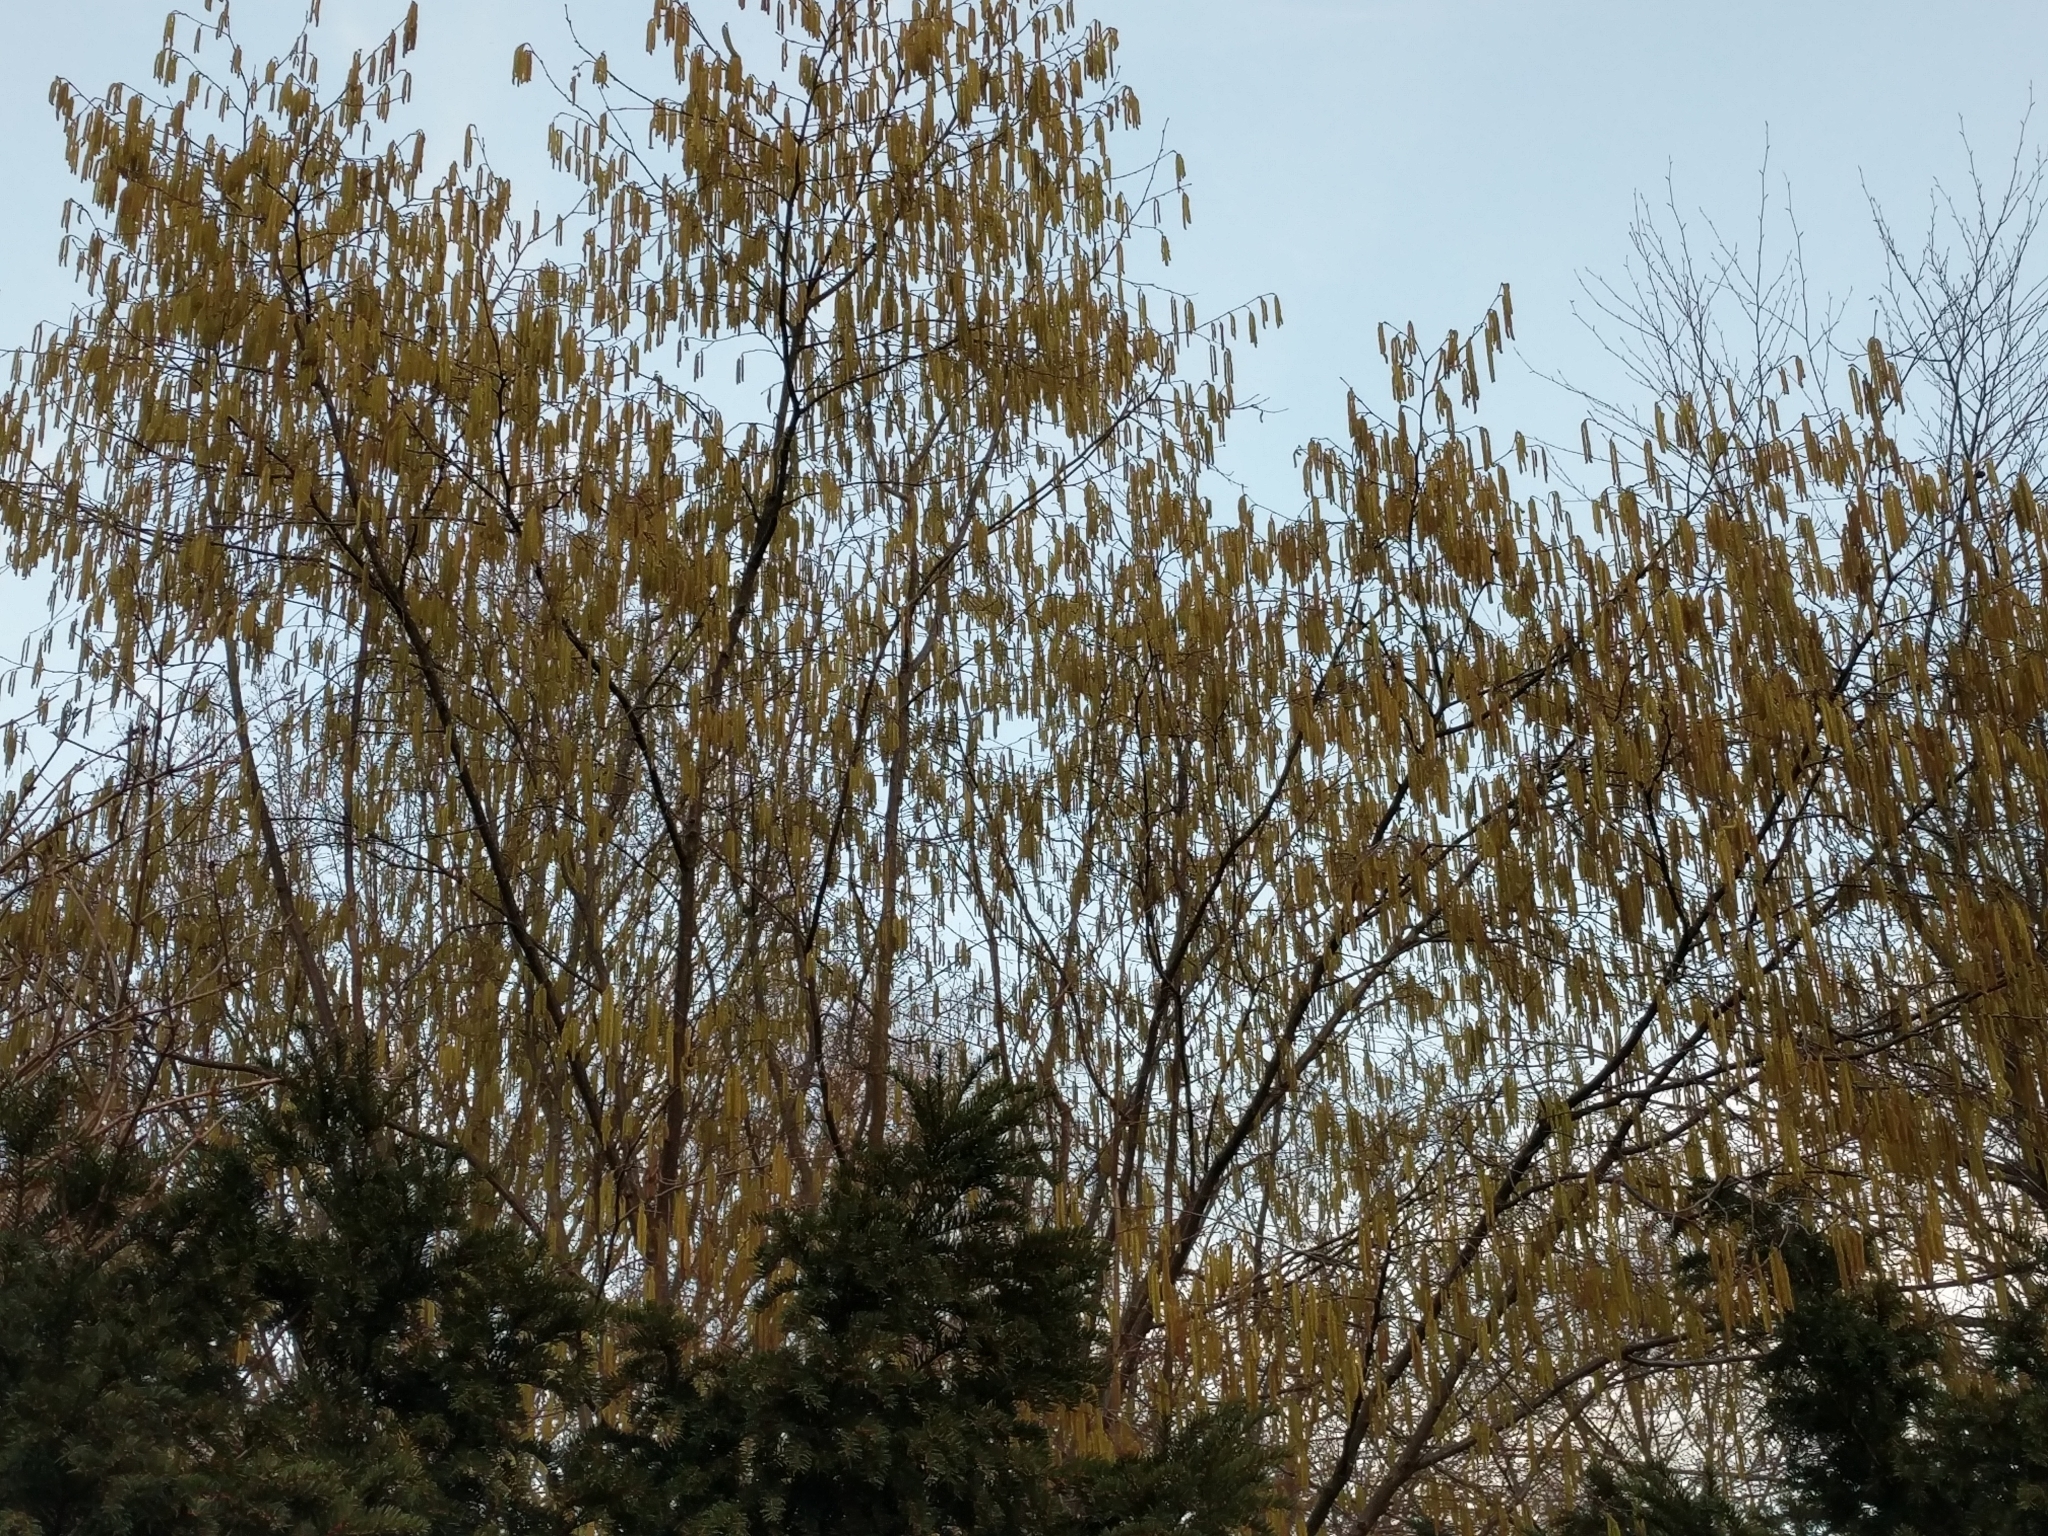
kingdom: Plantae
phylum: Tracheophyta
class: Magnoliopsida
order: Fagales
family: Betulaceae
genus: Corylus
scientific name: Corylus avellana
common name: European hazel
